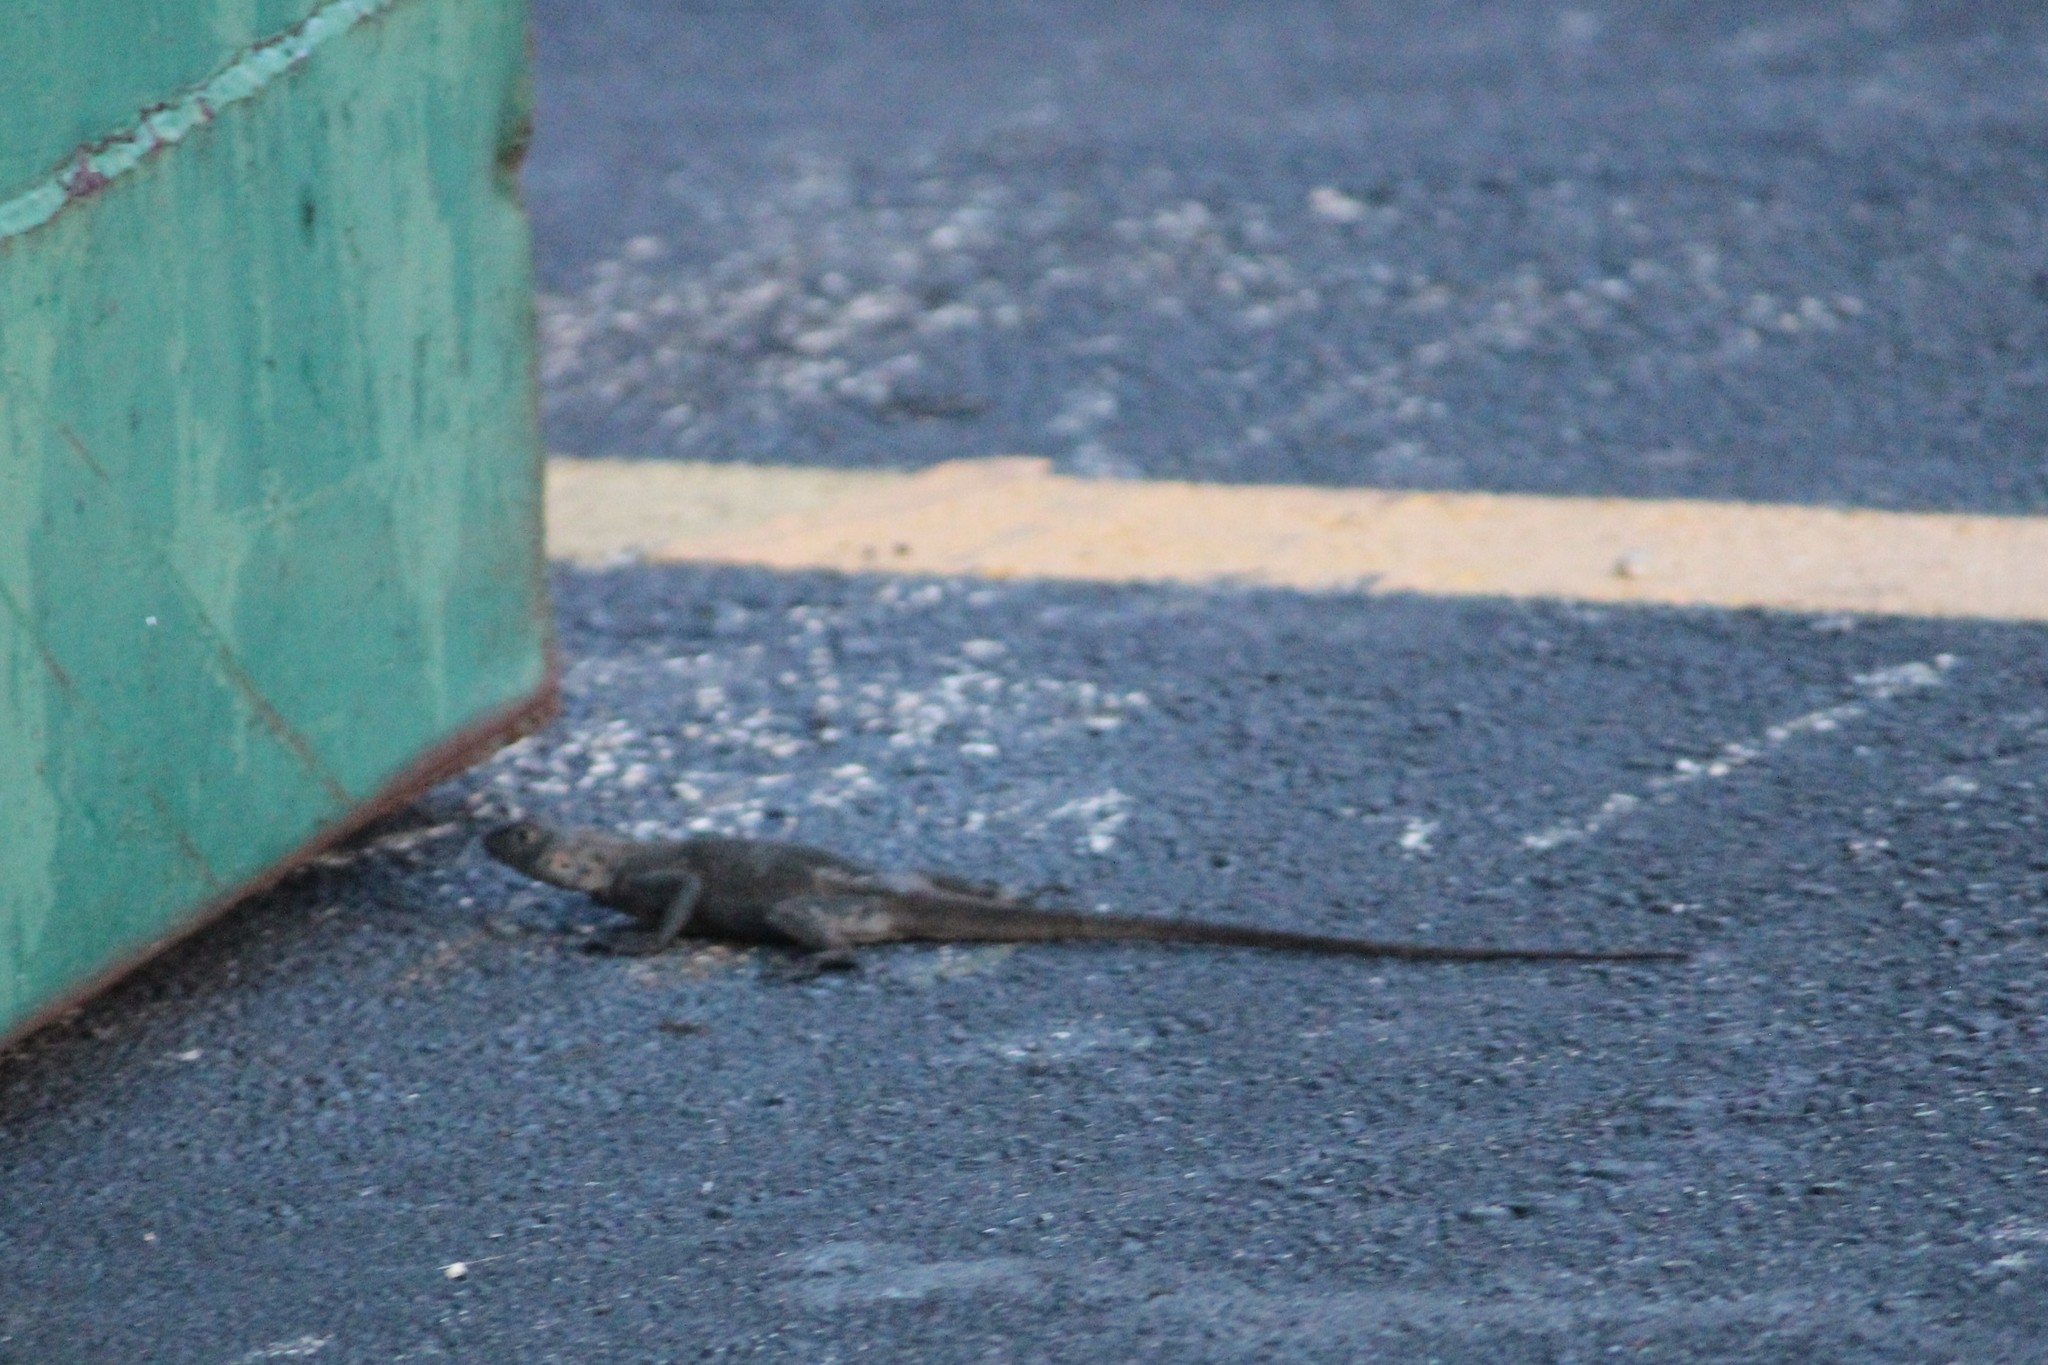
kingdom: Animalia
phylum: Chordata
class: Squamata
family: Agamidae
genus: Agama
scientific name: Agama picticauda
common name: Red-headed agama
